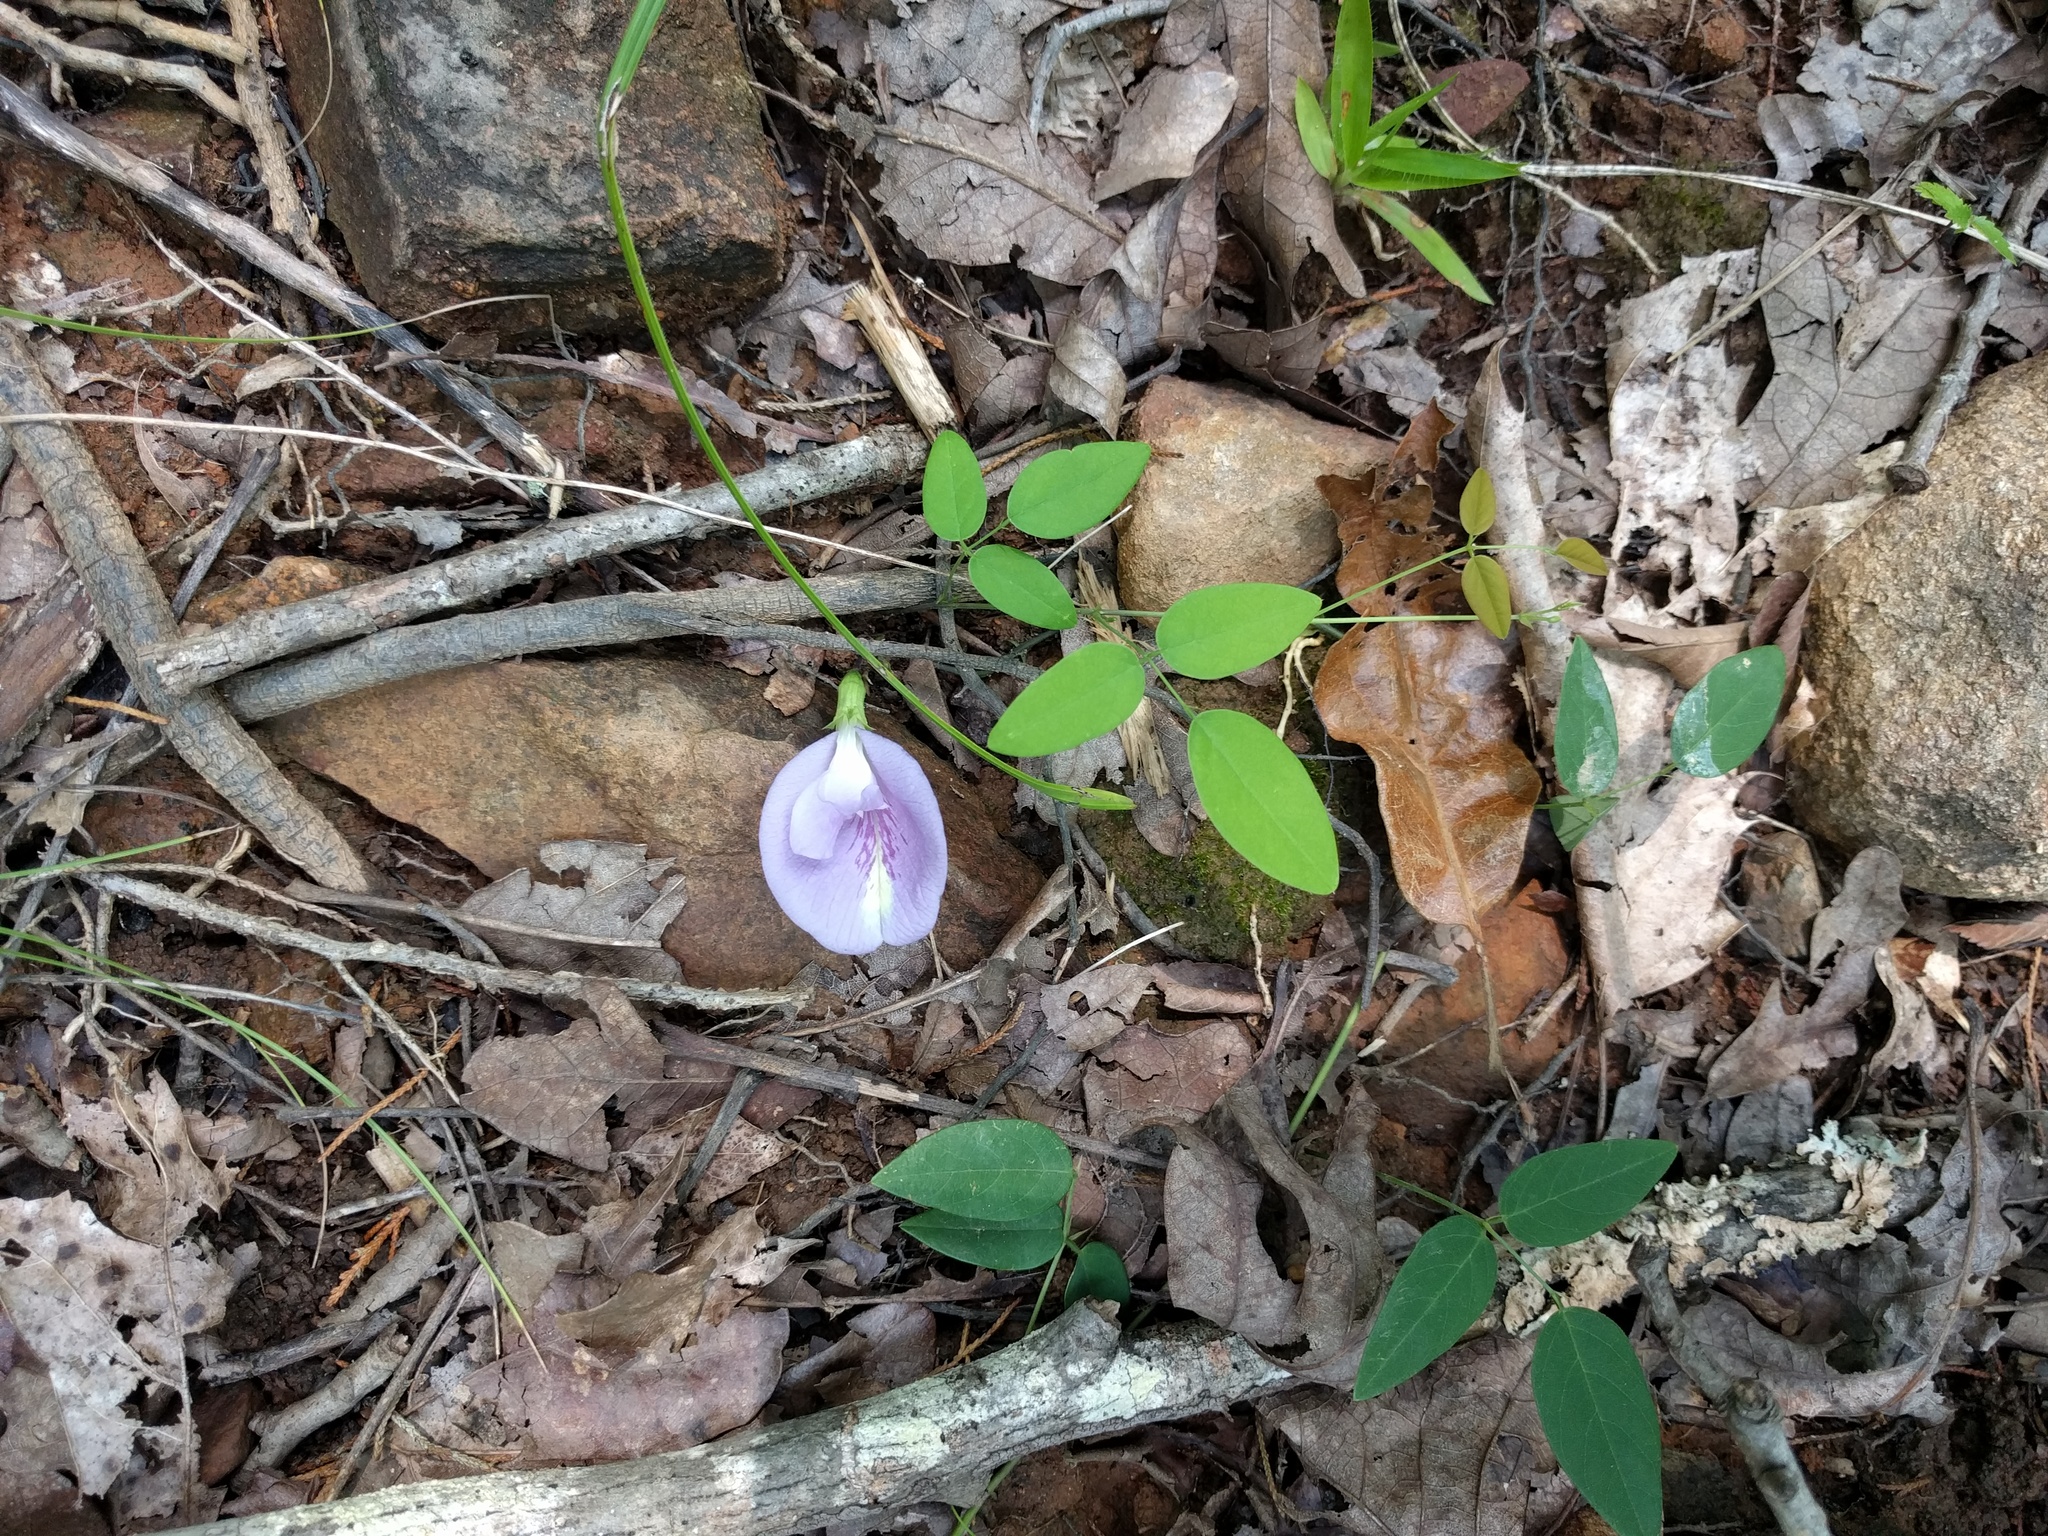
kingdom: Plantae
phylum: Tracheophyta
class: Magnoliopsida
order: Fabales
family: Fabaceae
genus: Clitoria
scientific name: Clitoria mariana
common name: Butterfly-pea
